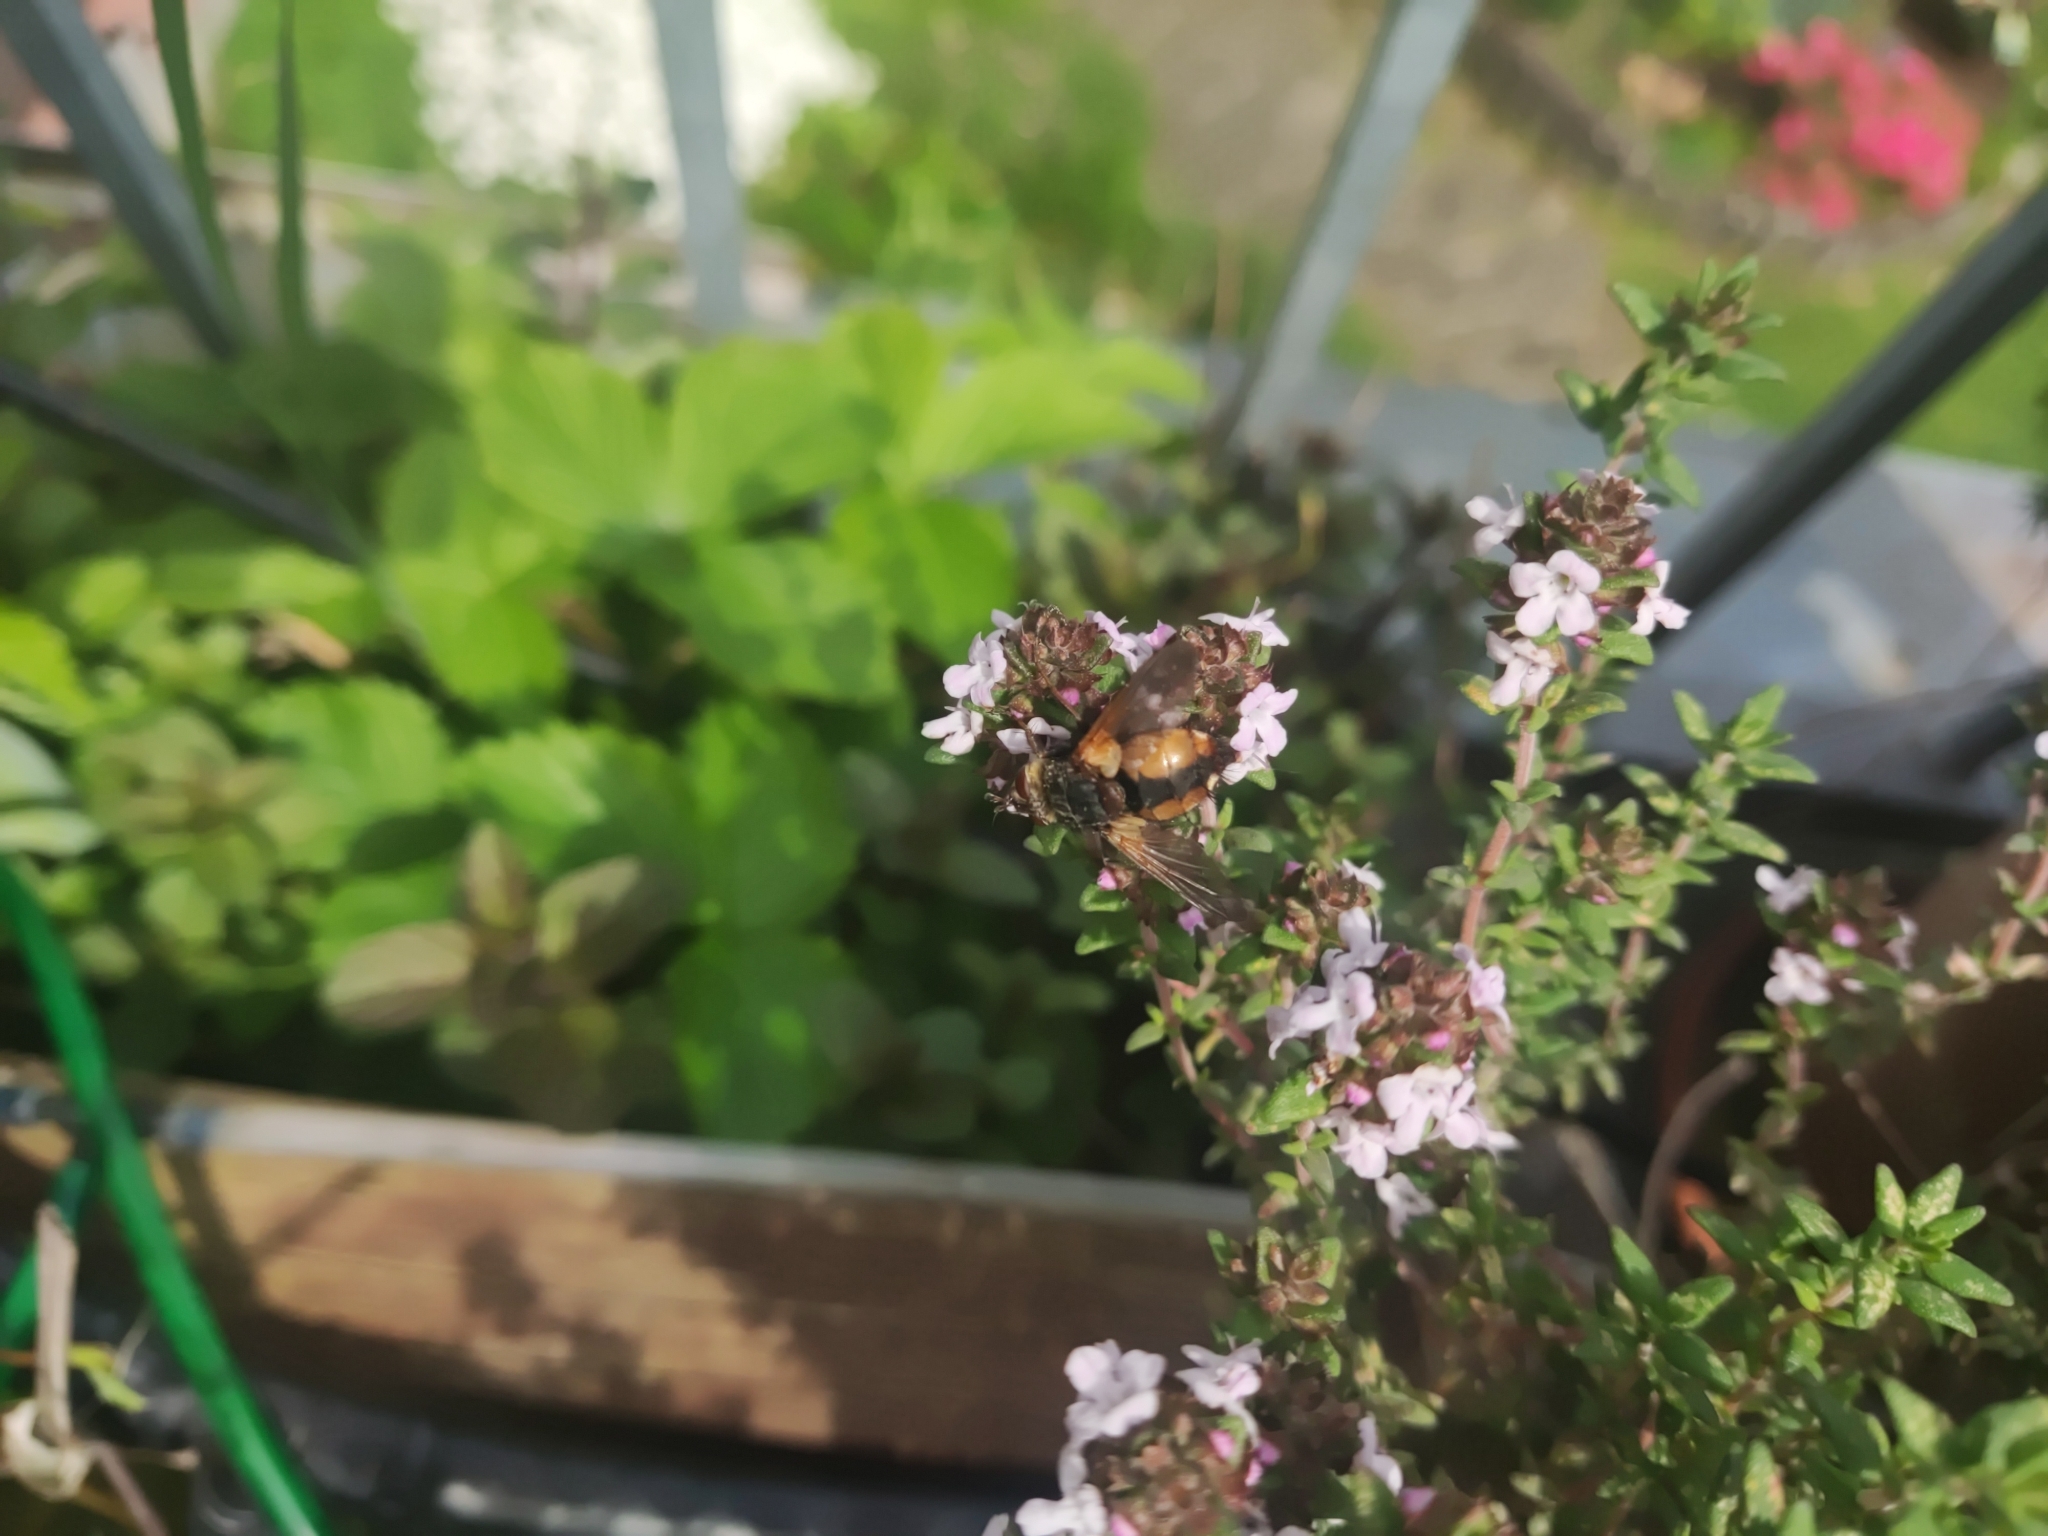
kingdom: Animalia
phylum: Arthropoda
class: Insecta
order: Diptera
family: Tachinidae
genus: Tachina
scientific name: Tachina fera
